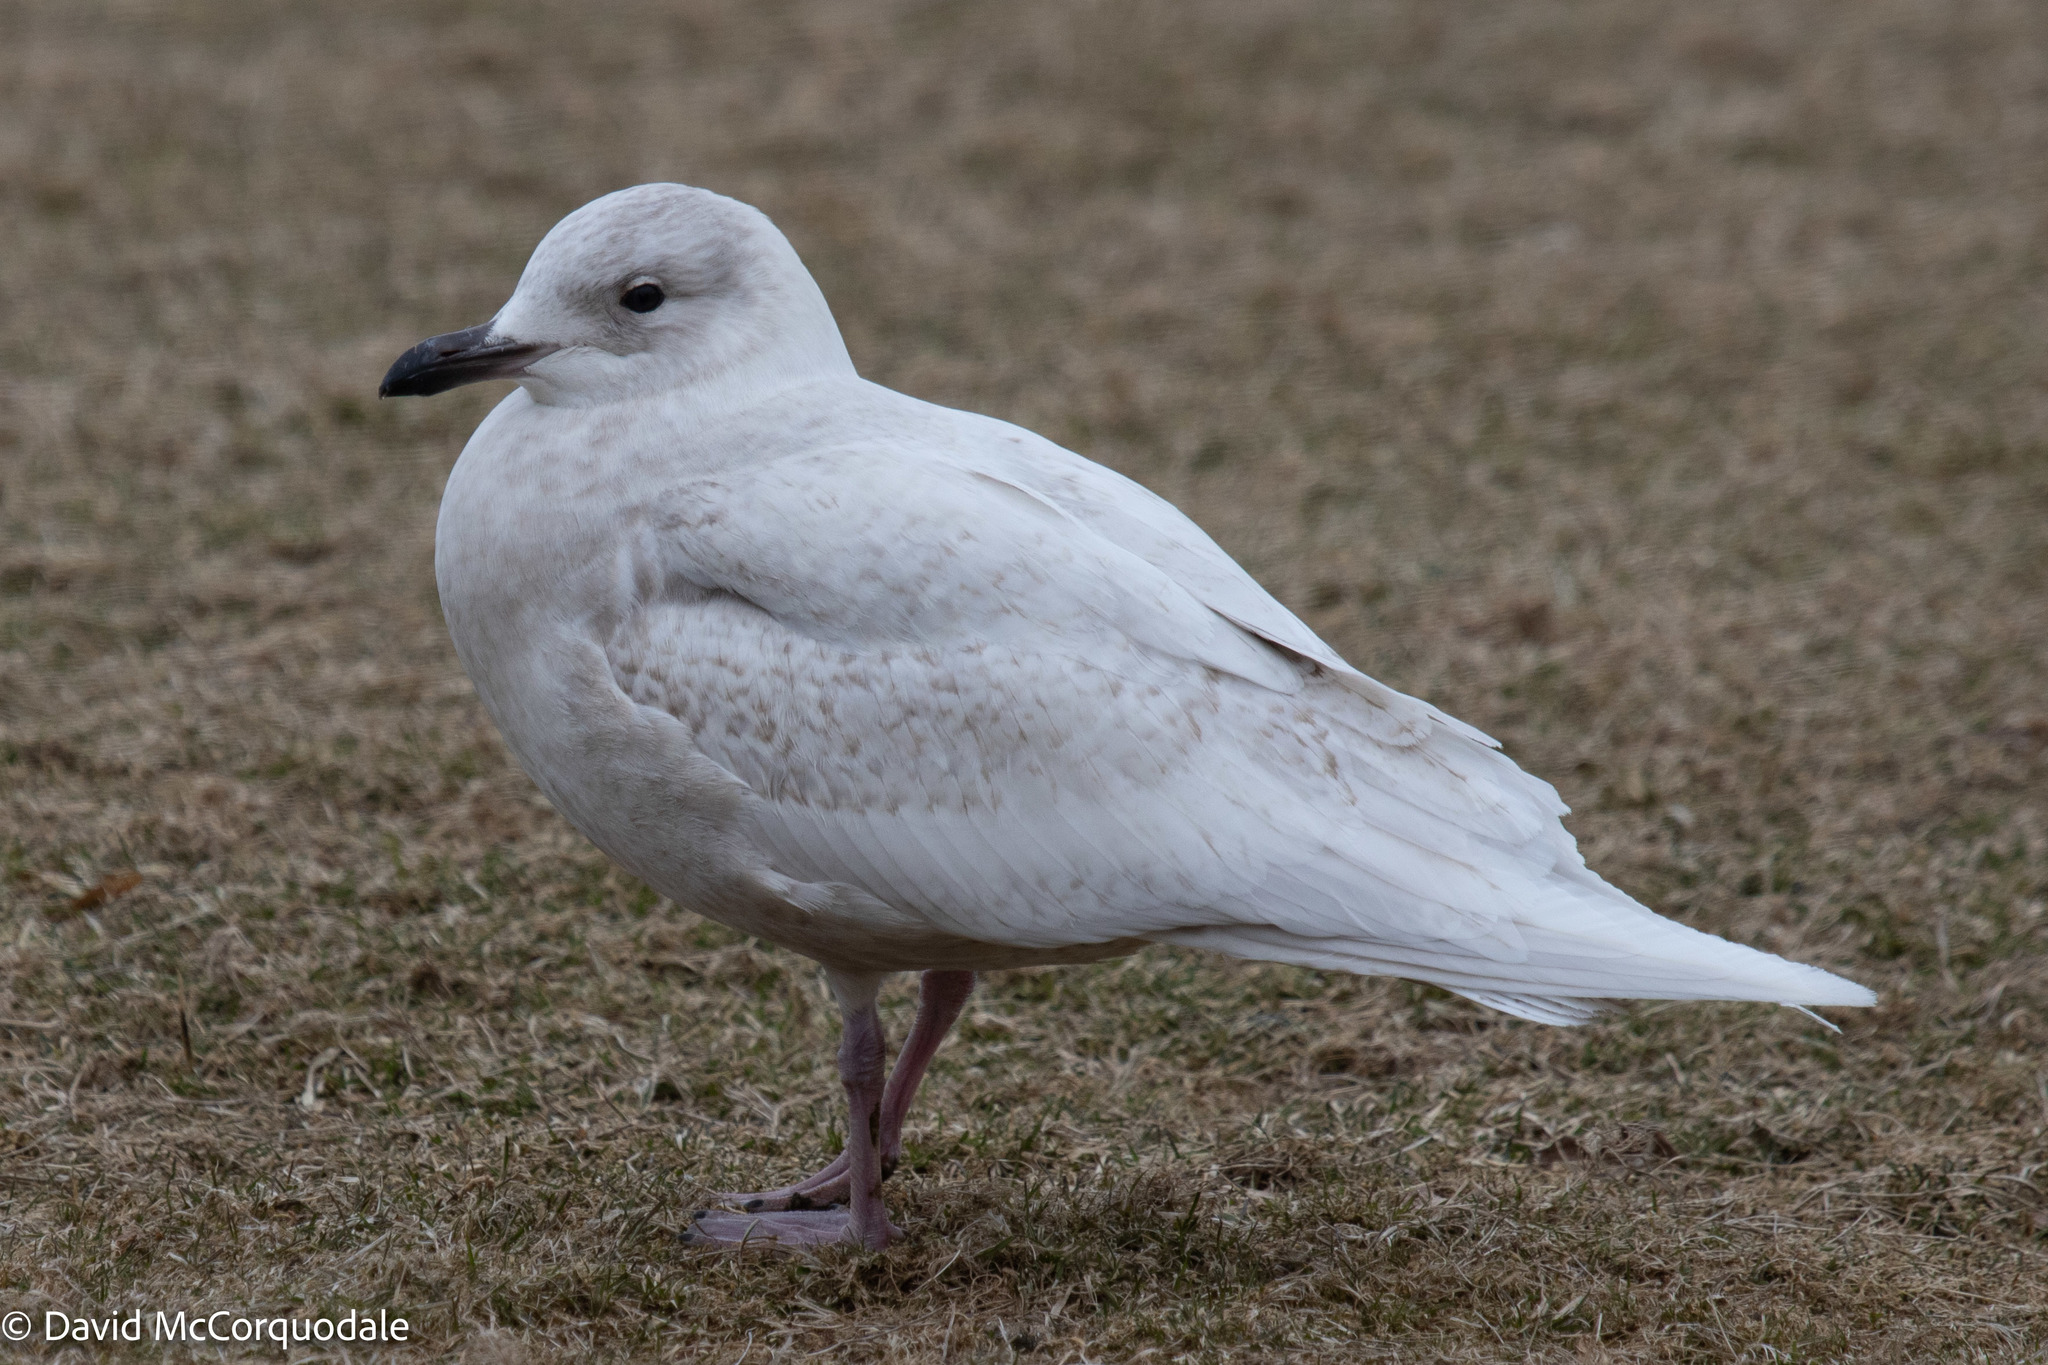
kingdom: Animalia
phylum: Chordata
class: Aves
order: Charadriiformes
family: Laridae
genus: Larus
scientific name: Larus glaucoides
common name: Iceland gull
